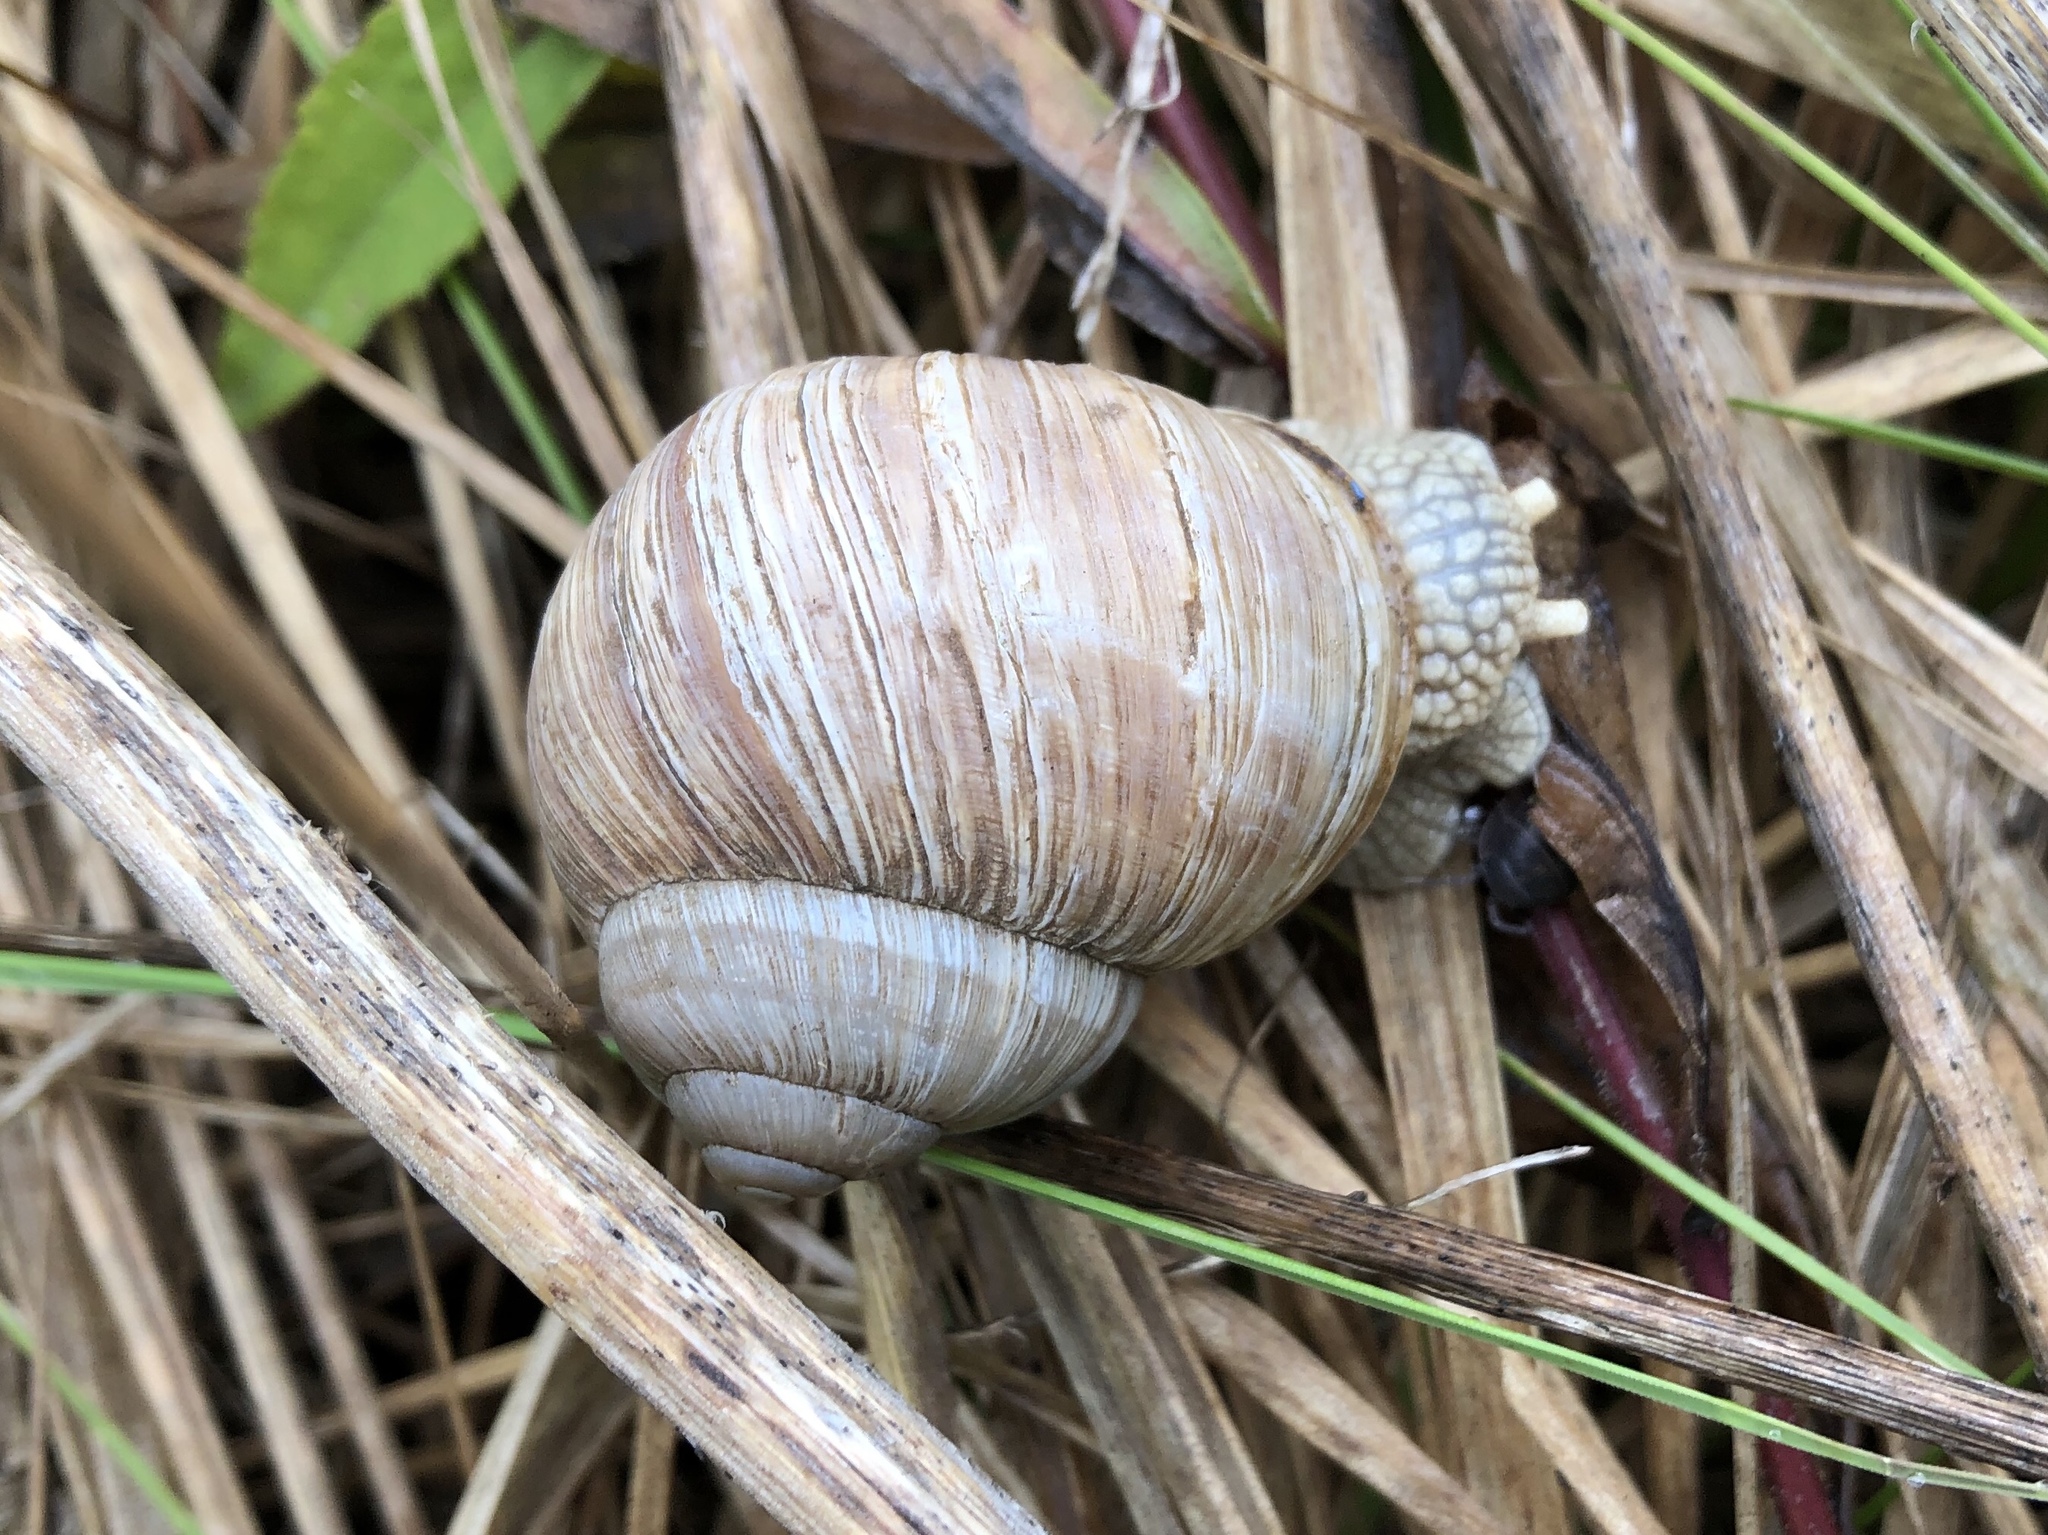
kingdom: Animalia
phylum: Mollusca
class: Gastropoda
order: Stylommatophora
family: Helicidae
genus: Helix
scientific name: Helix pomatia
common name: Roman snail
